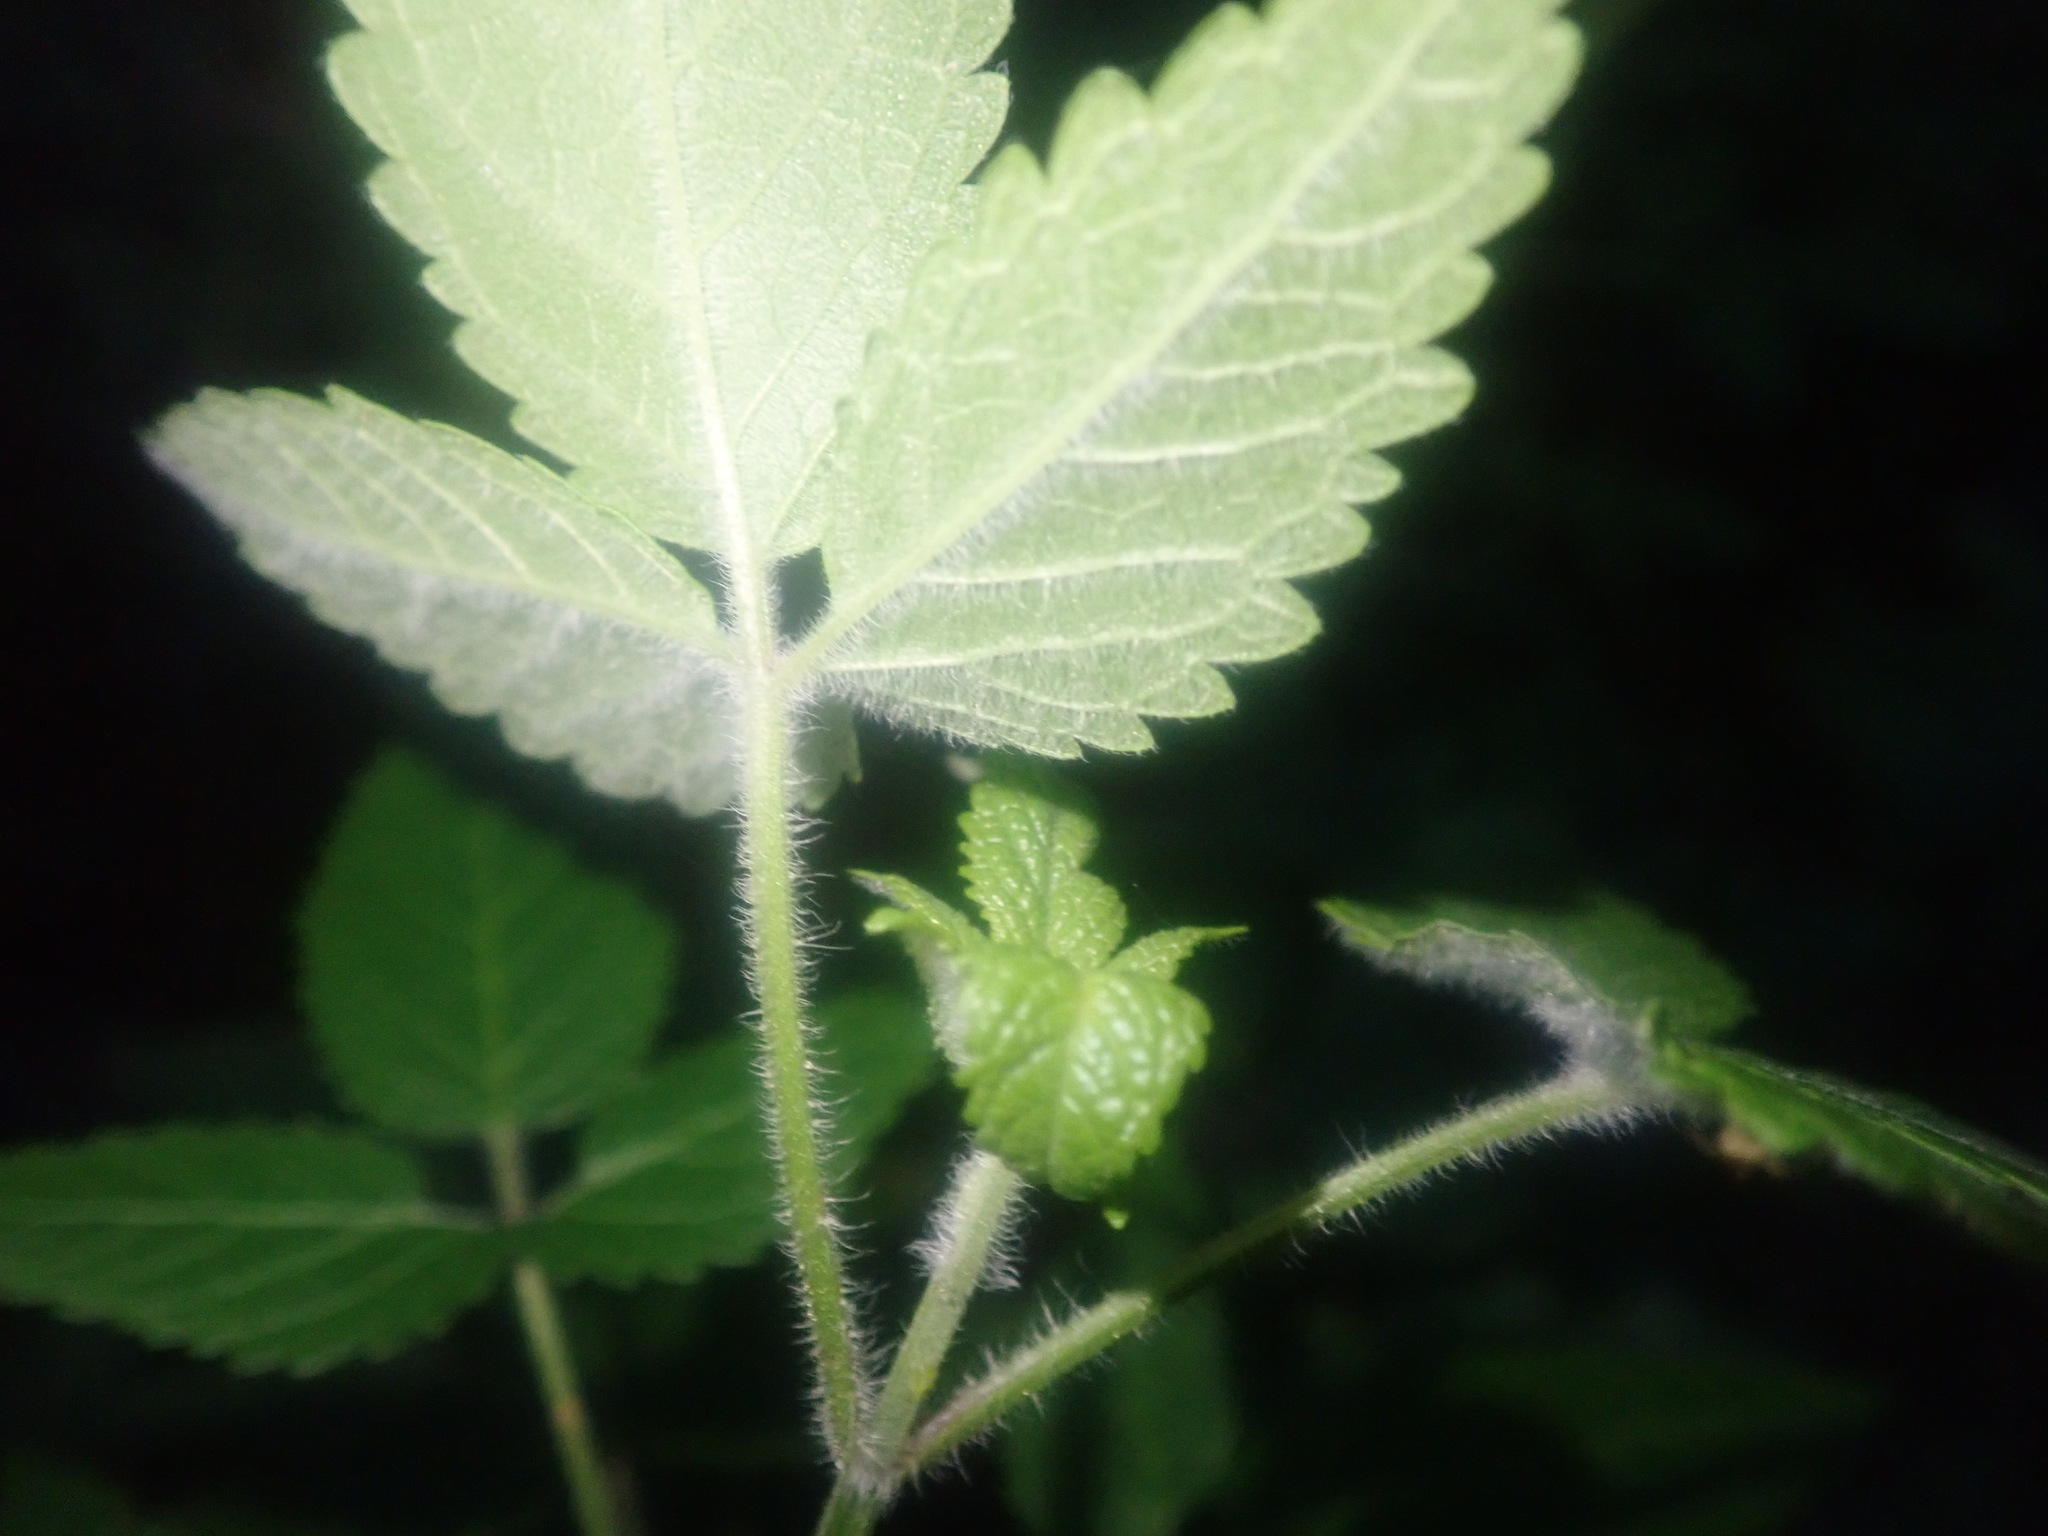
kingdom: Plantae
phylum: Tracheophyta
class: Magnoliopsida
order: Lamiales
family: Lamiaceae
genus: Cedronella
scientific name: Cedronella canariensis
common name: Canary islands balm
